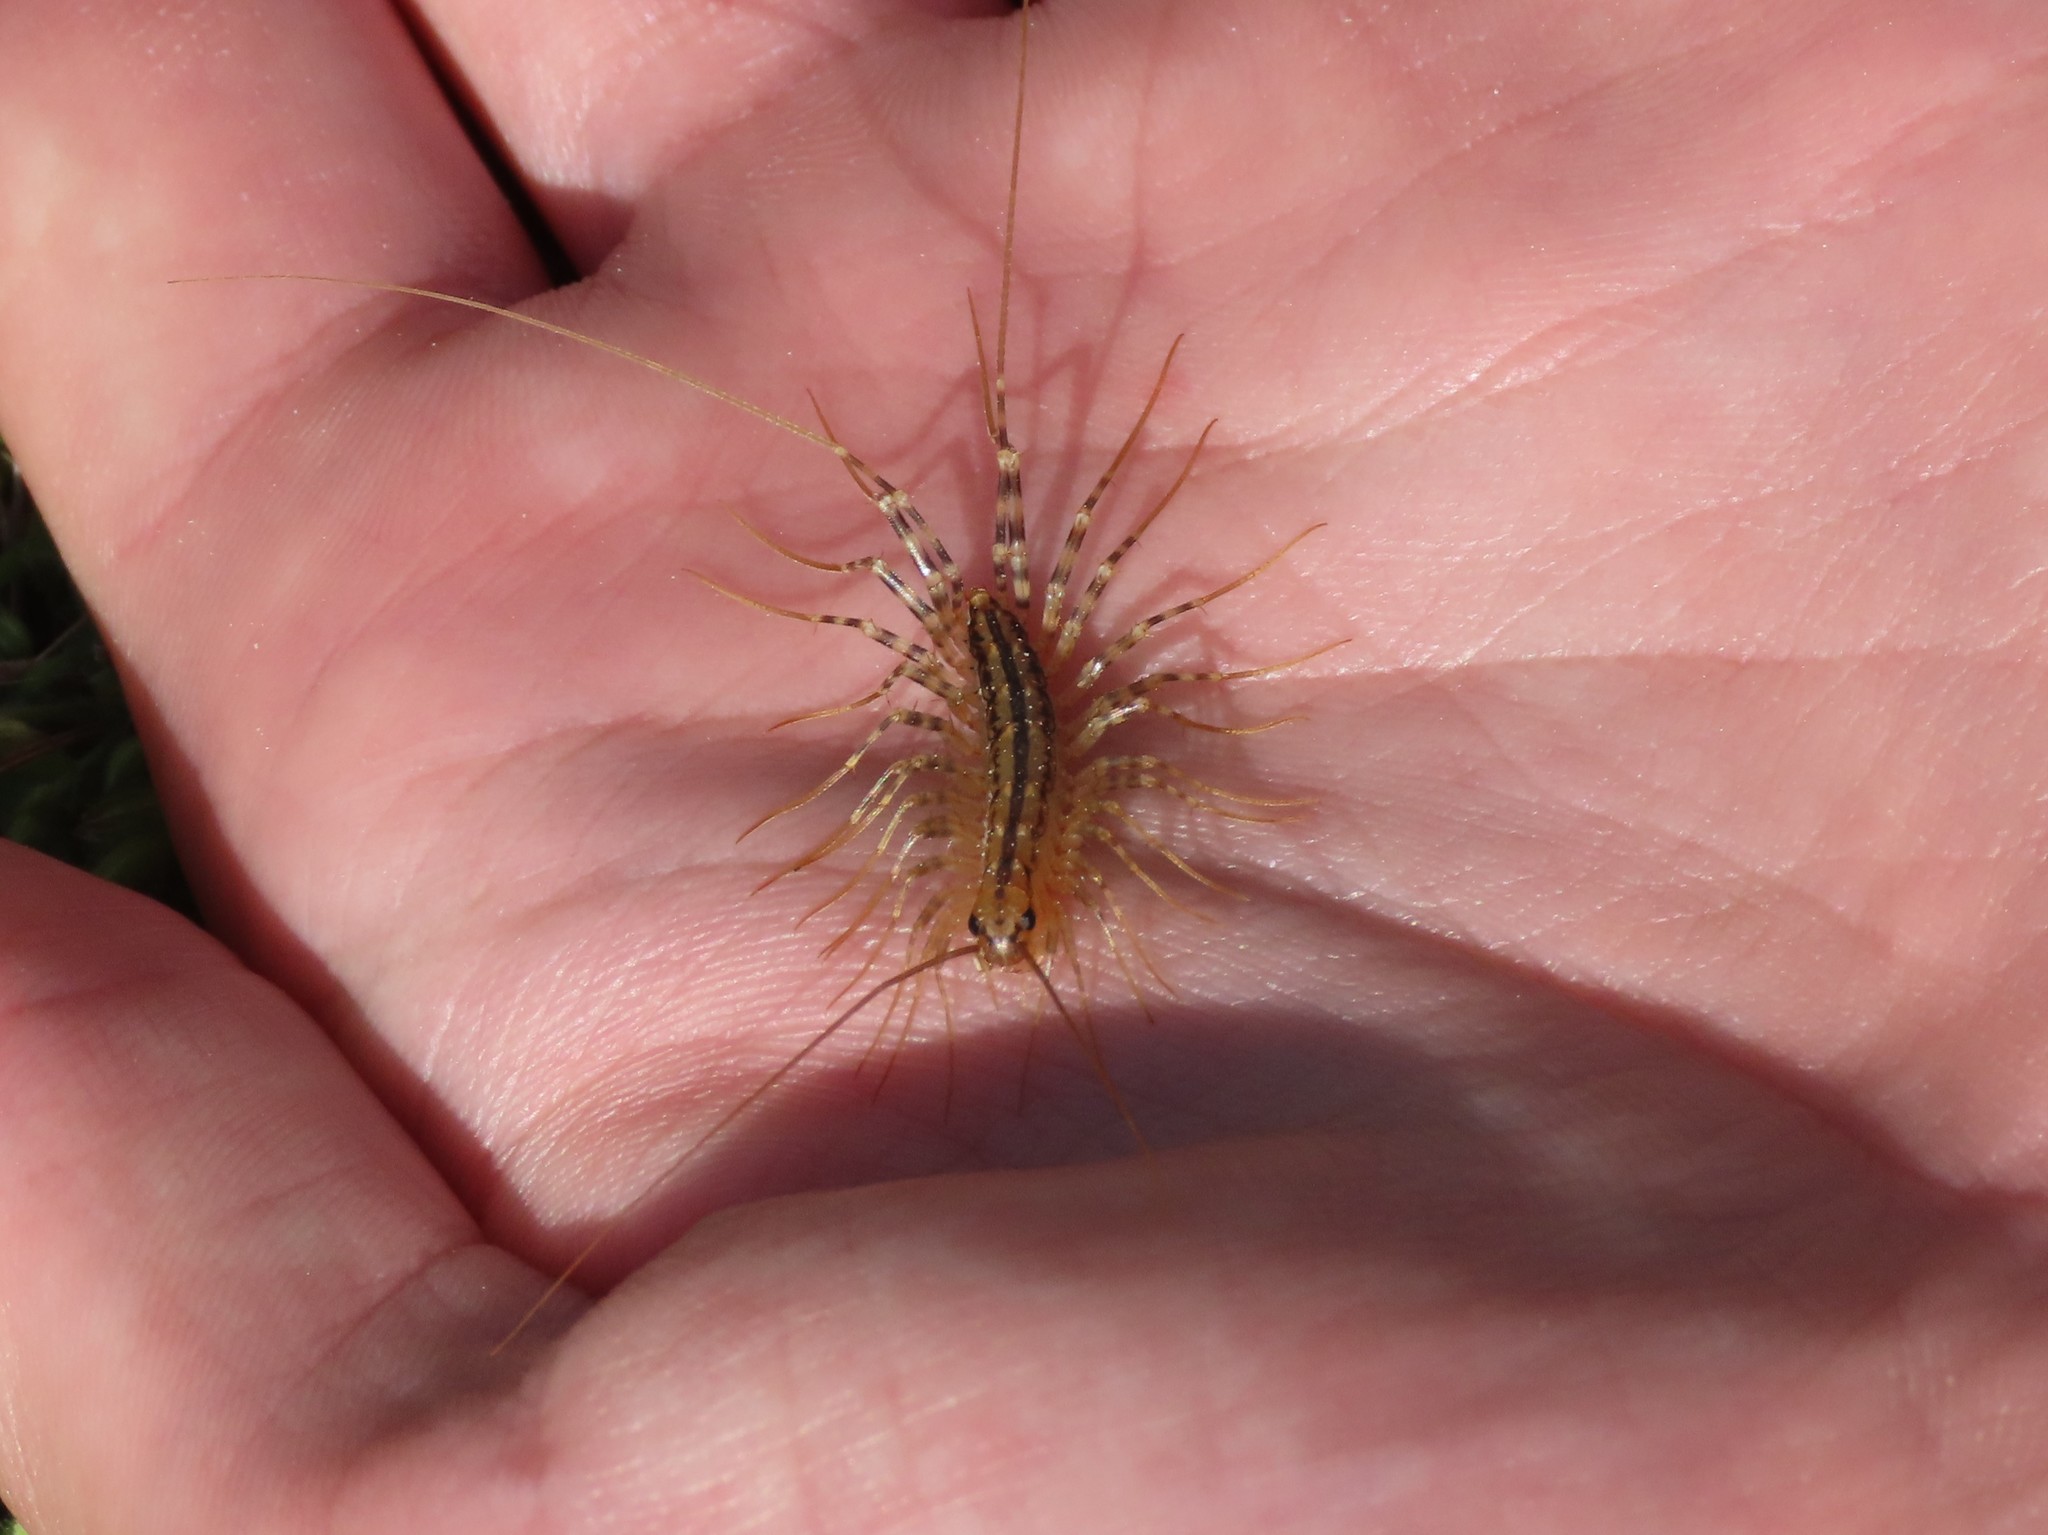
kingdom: Animalia
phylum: Arthropoda
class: Chilopoda
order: Scutigeromorpha
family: Scutigeridae
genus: Scutigera
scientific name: Scutigera coleoptrata
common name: House centipede
